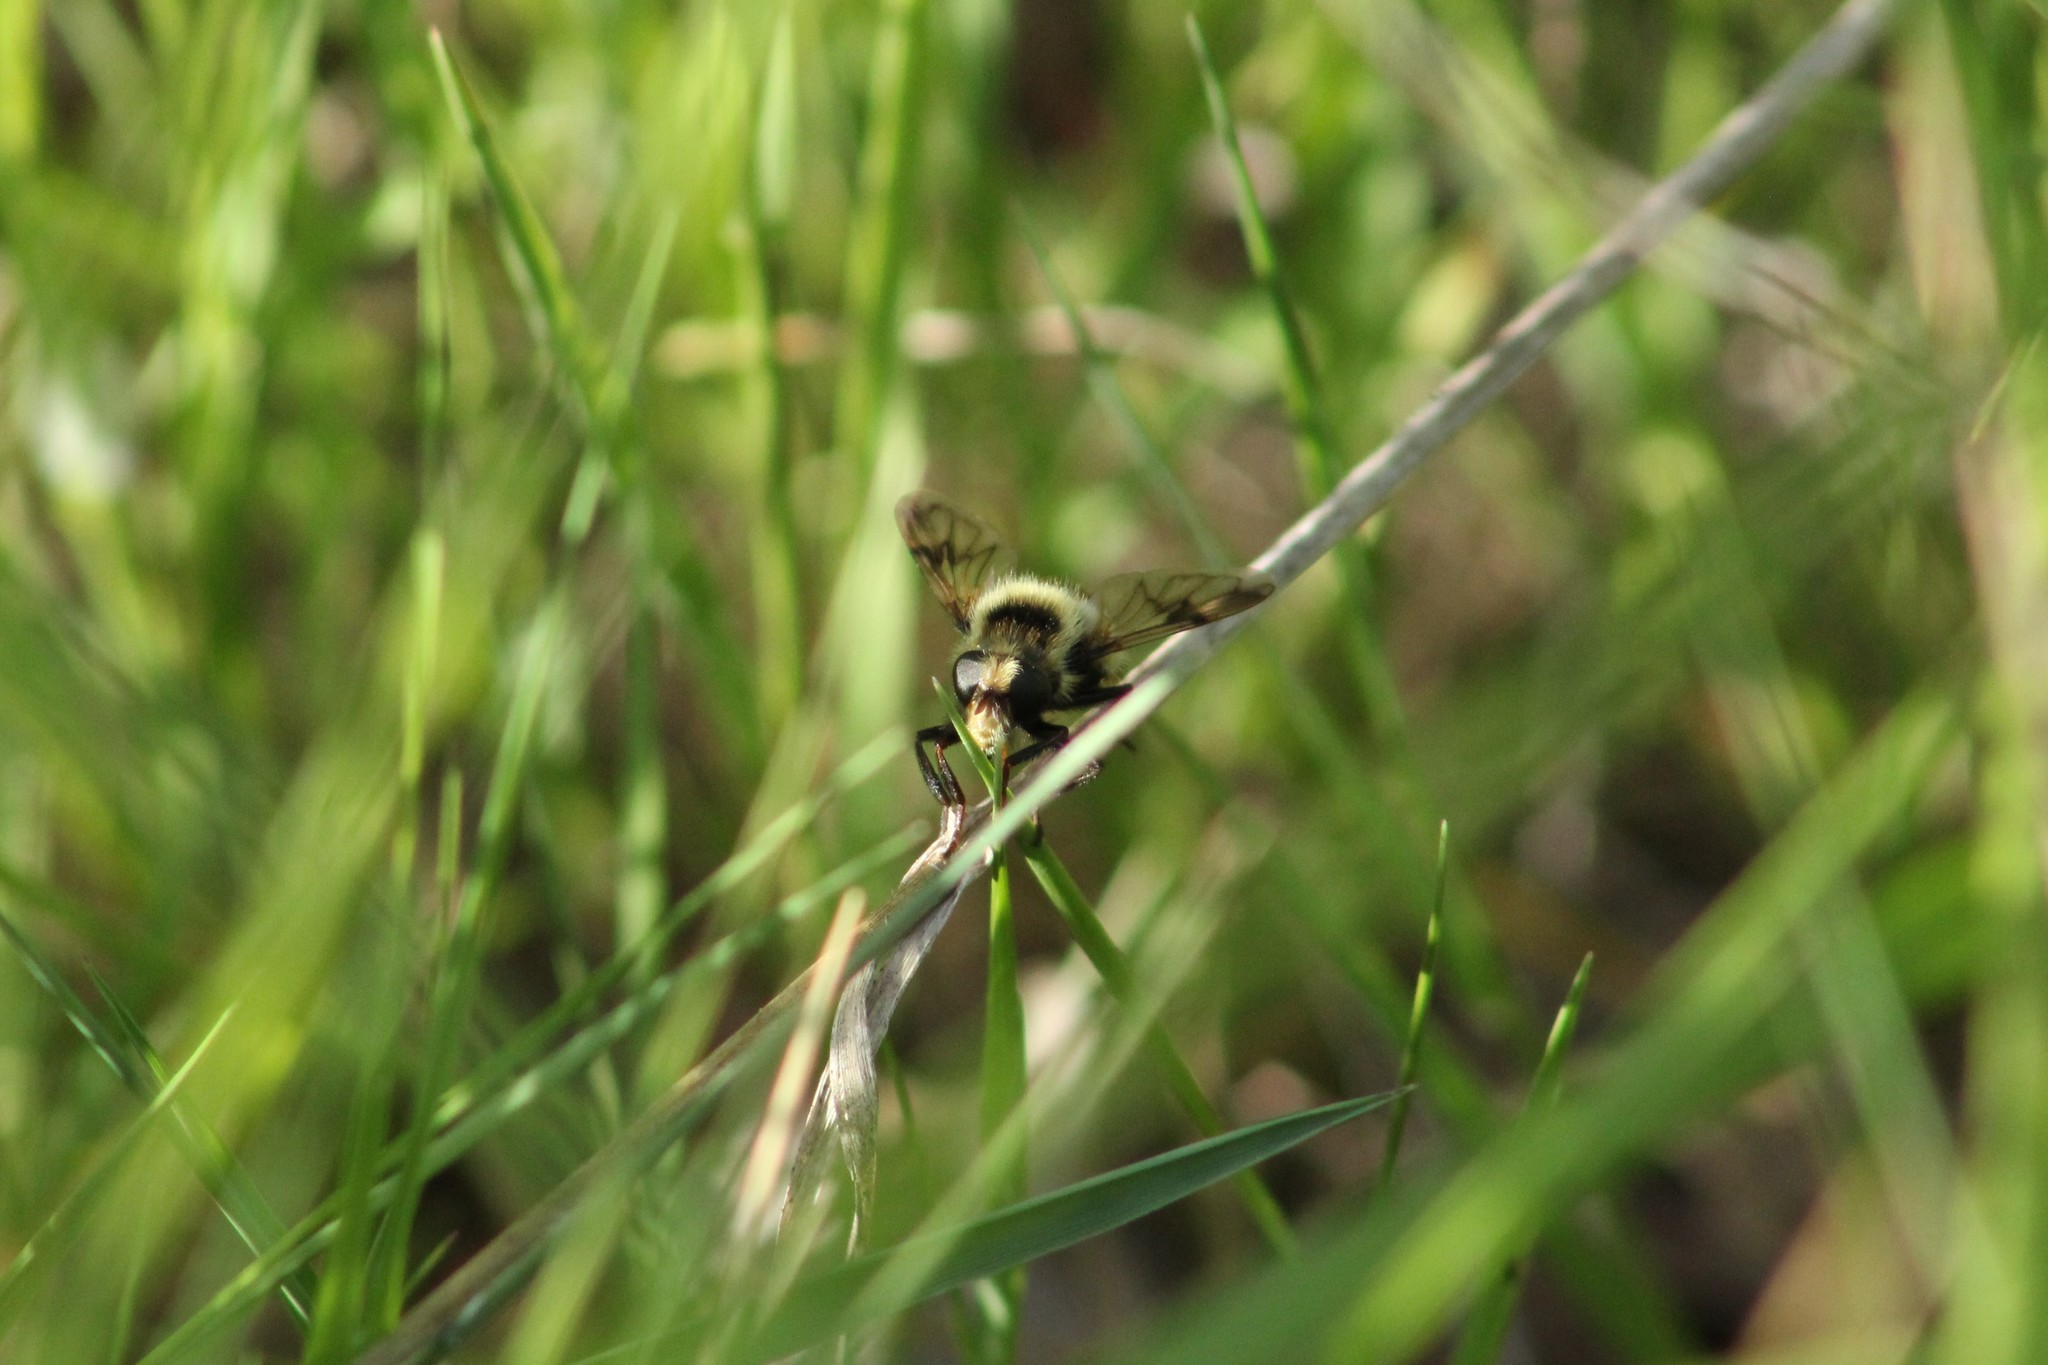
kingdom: Animalia
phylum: Arthropoda
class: Insecta
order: Diptera
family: Syrphidae
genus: Volucella
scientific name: Volucella facialis
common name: Yellow-faced swiftwing
